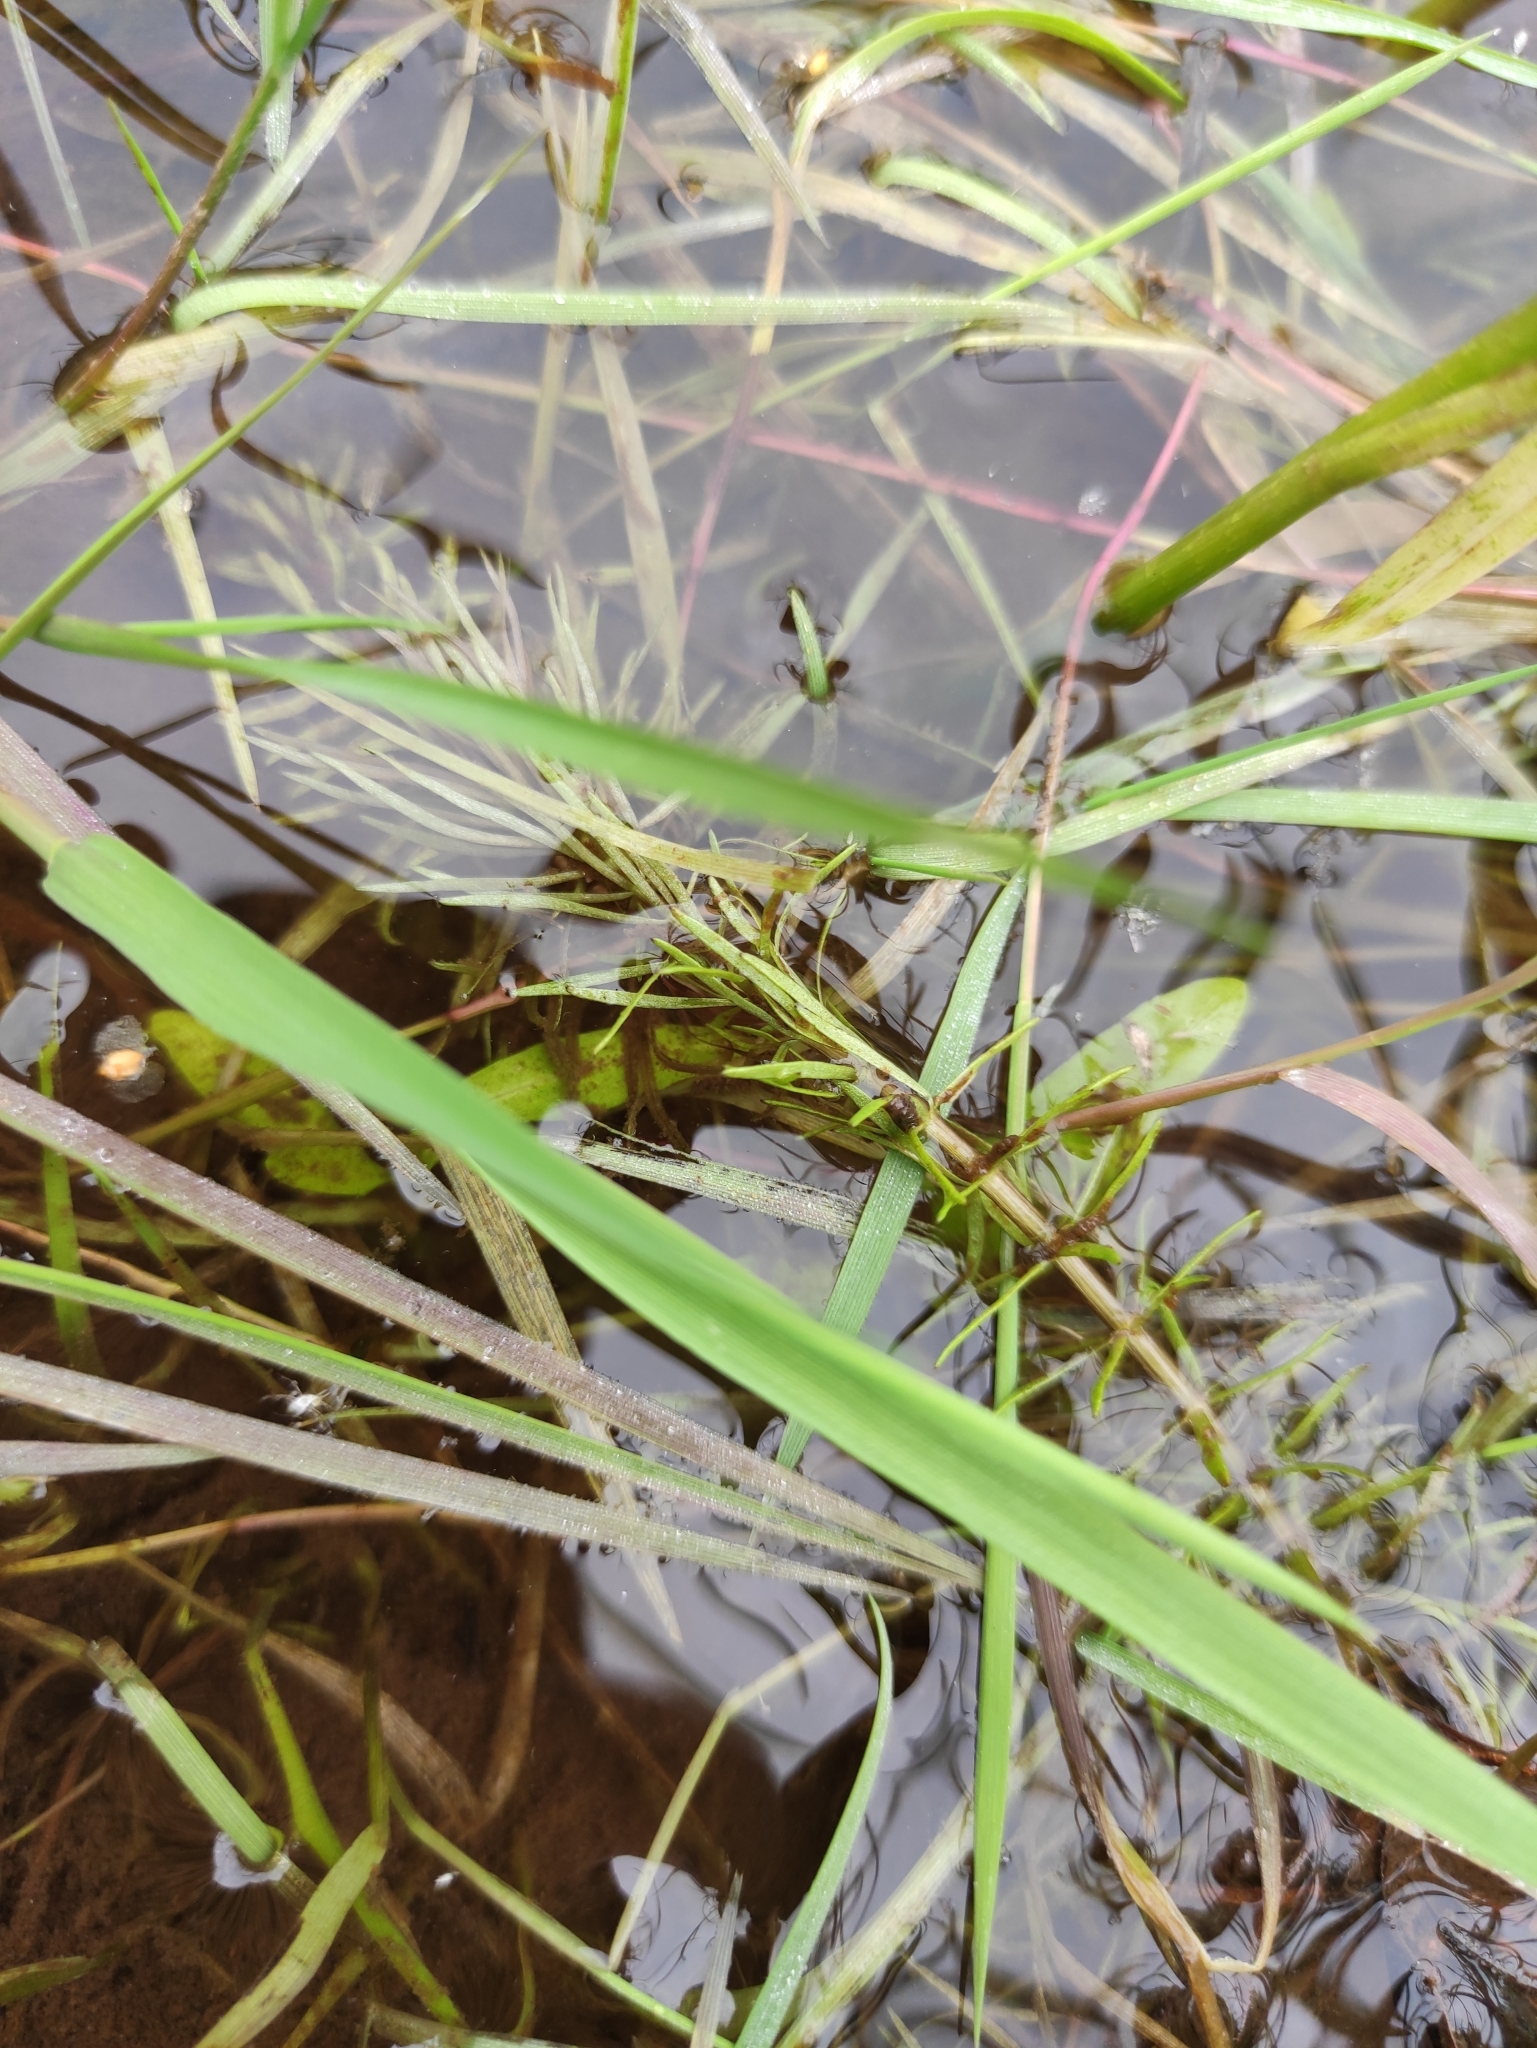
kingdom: Plantae
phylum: Tracheophyta
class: Magnoliopsida
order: Lamiales
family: Plantaginaceae
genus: Hippuris
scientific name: Hippuris vulgaris
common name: Mare's-tail
